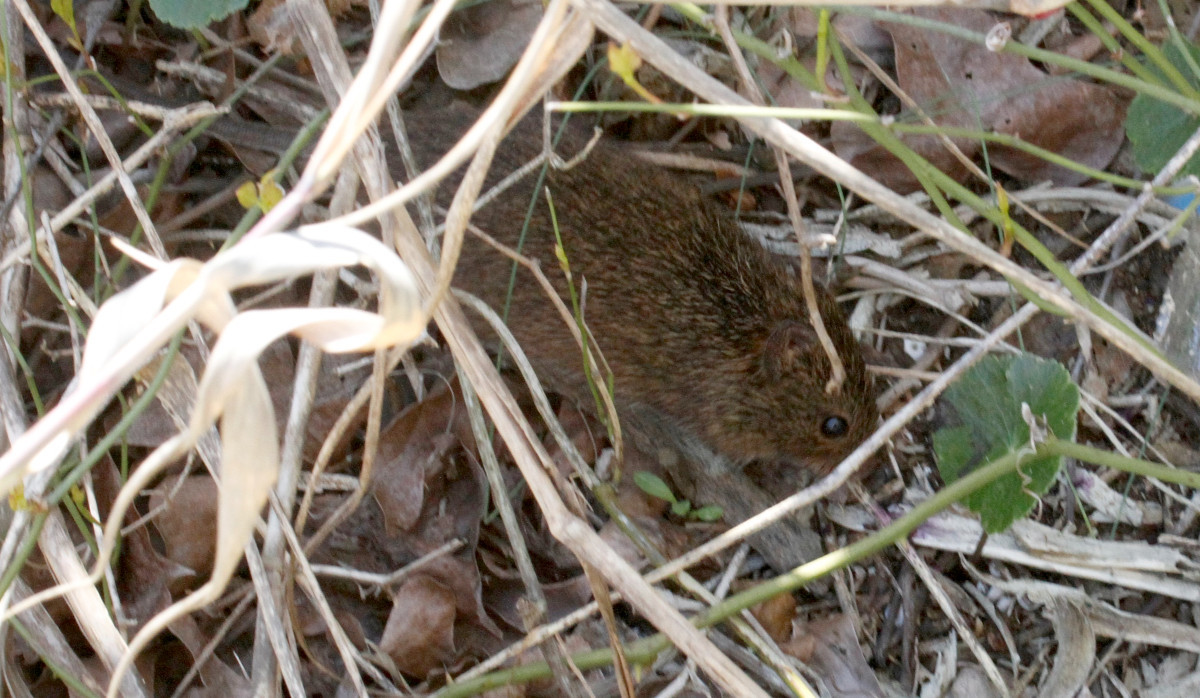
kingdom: Animalia
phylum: Chordata
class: Mammalia
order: Rodentia
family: Cricetidae
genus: Sigmodon
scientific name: Sigmodon hispidus
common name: Hispid cotton rat
